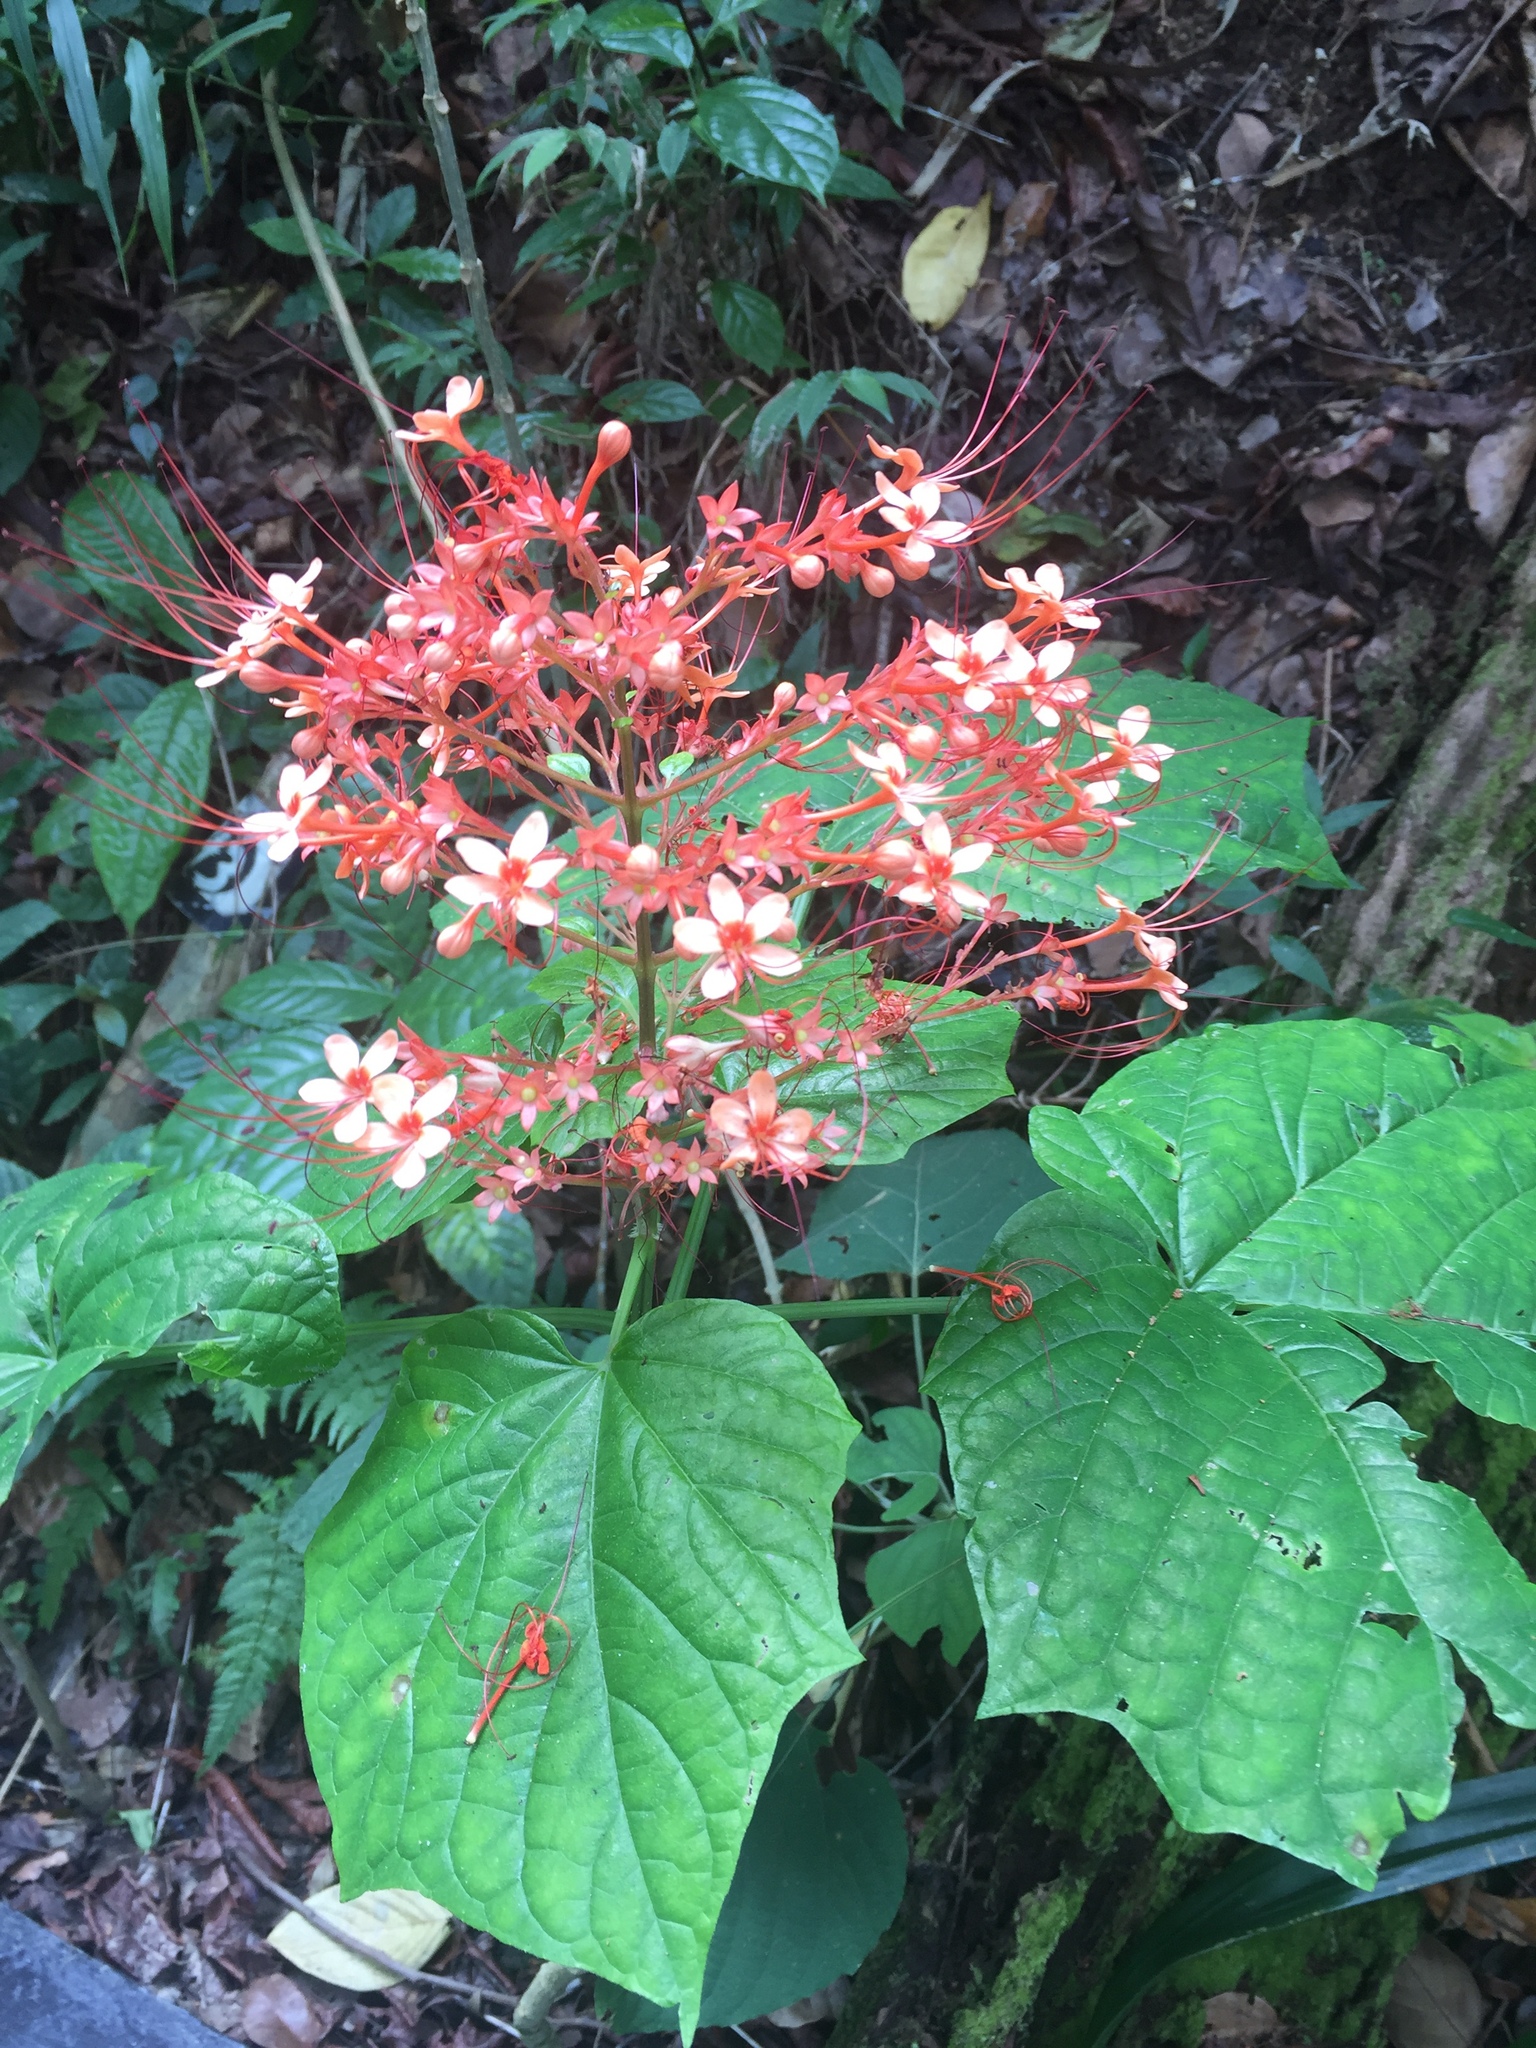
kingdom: Plantae
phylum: Tracheophyta
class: Magnoliopsida
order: Lamiales
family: Lamiaceae
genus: Clerodendrum
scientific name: Clerodendrum paniculatum
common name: Pagoda-flower
